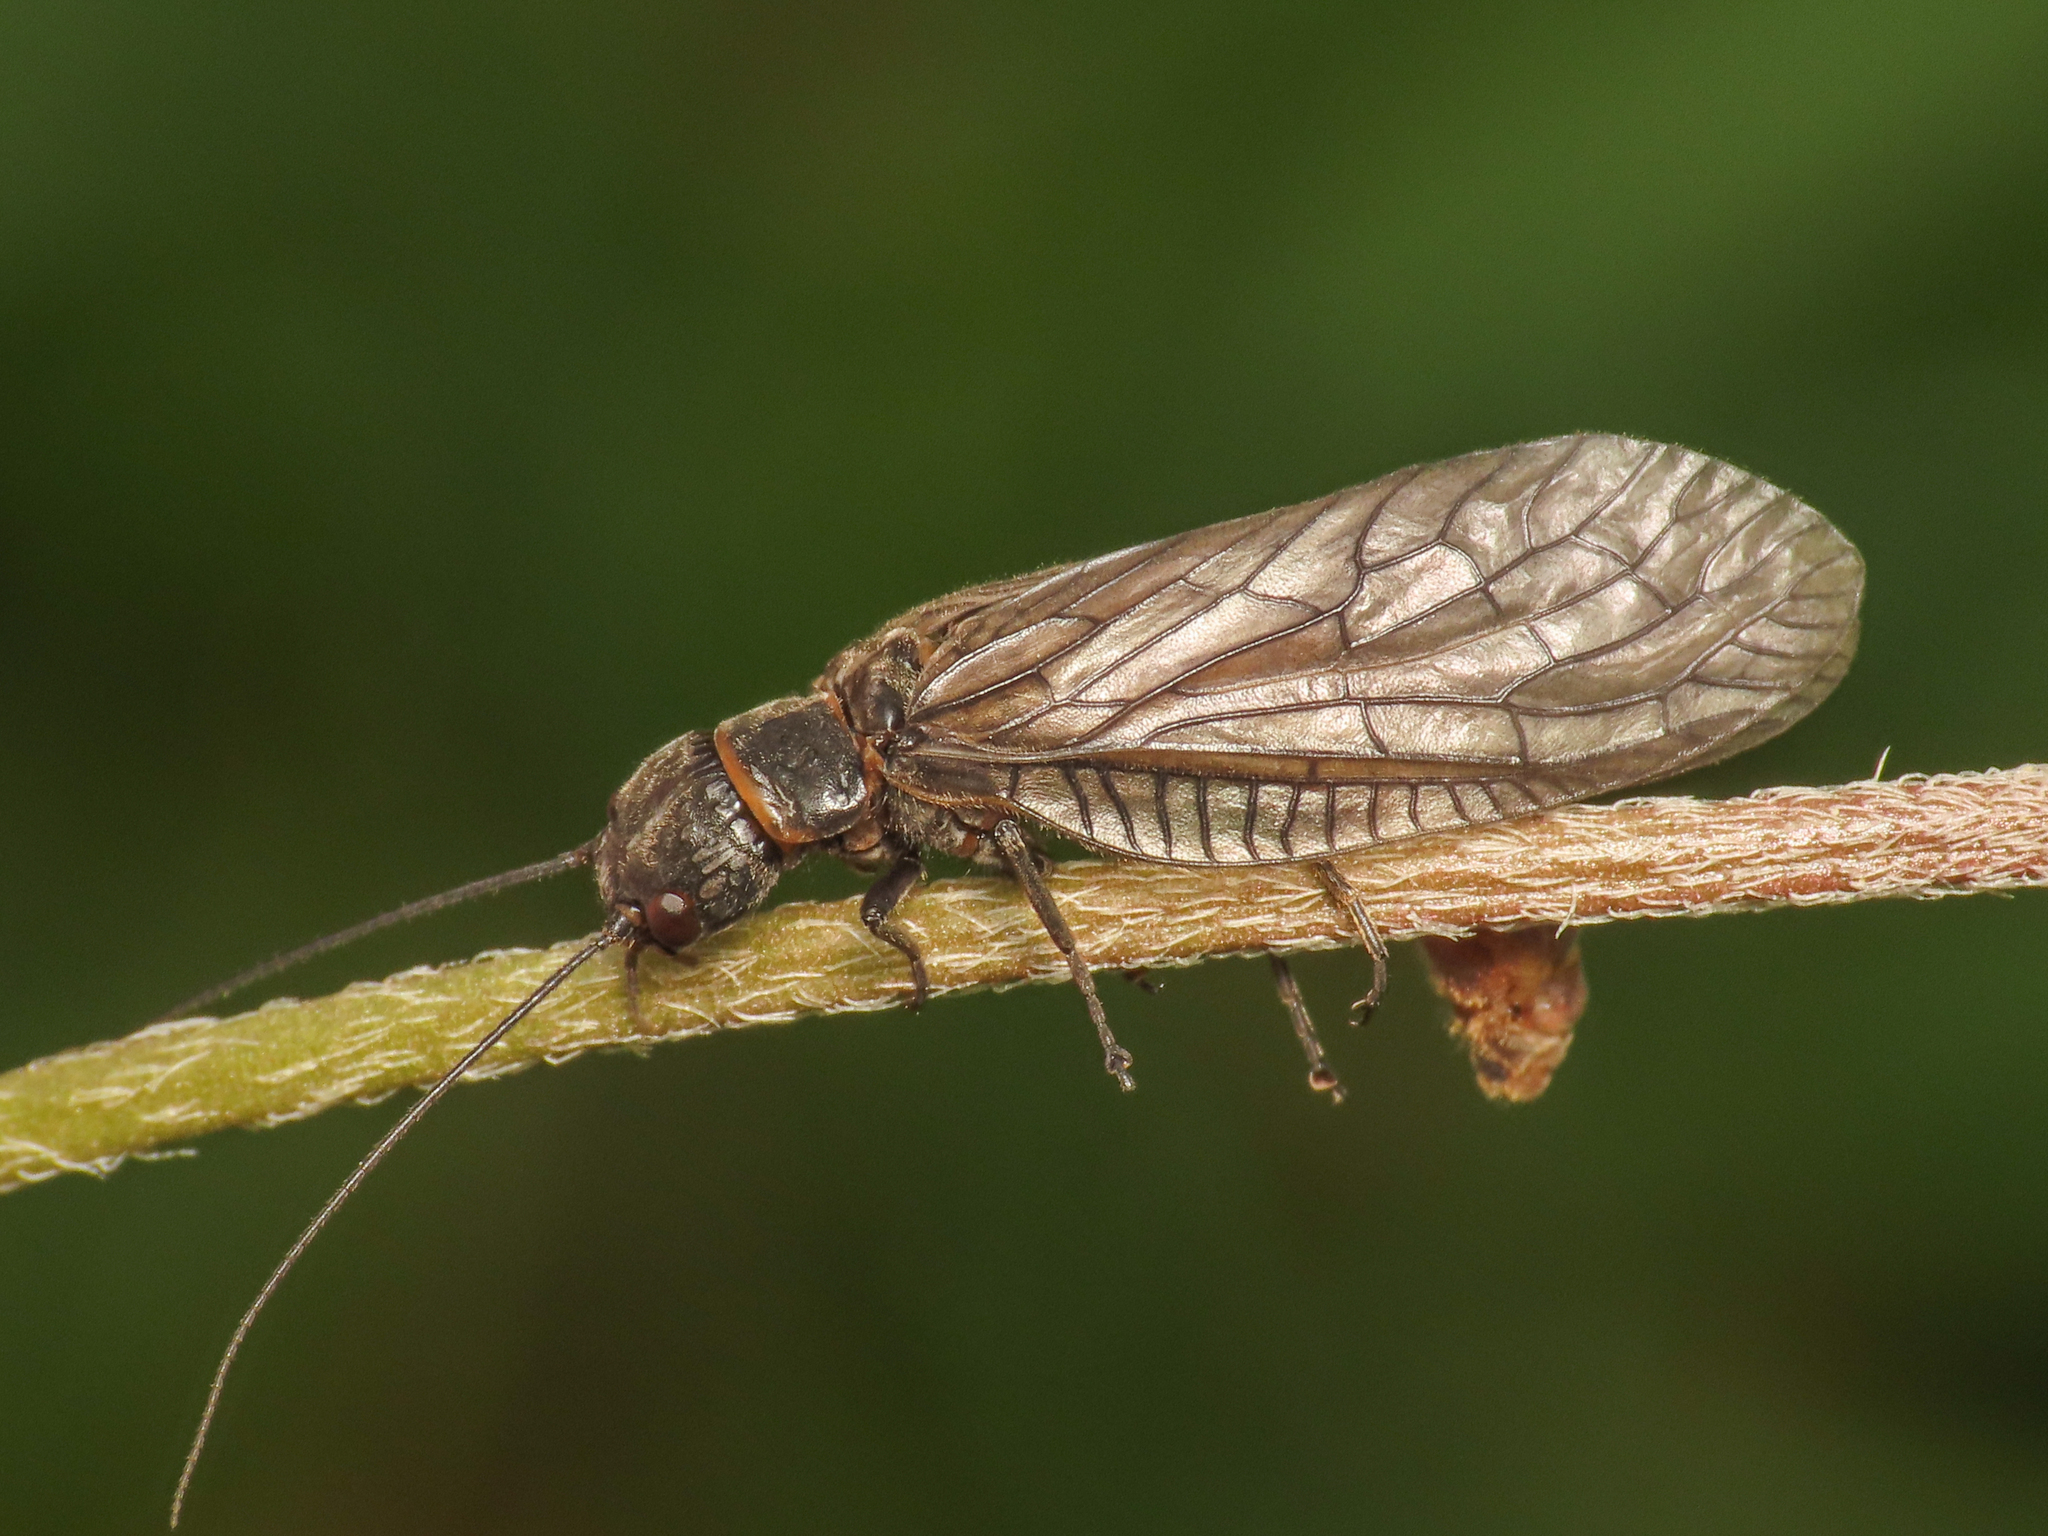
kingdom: Animalia
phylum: Arthropoda
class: Insecta
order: Megaloptera
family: Sialidae
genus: Sialis
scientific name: Sialis
